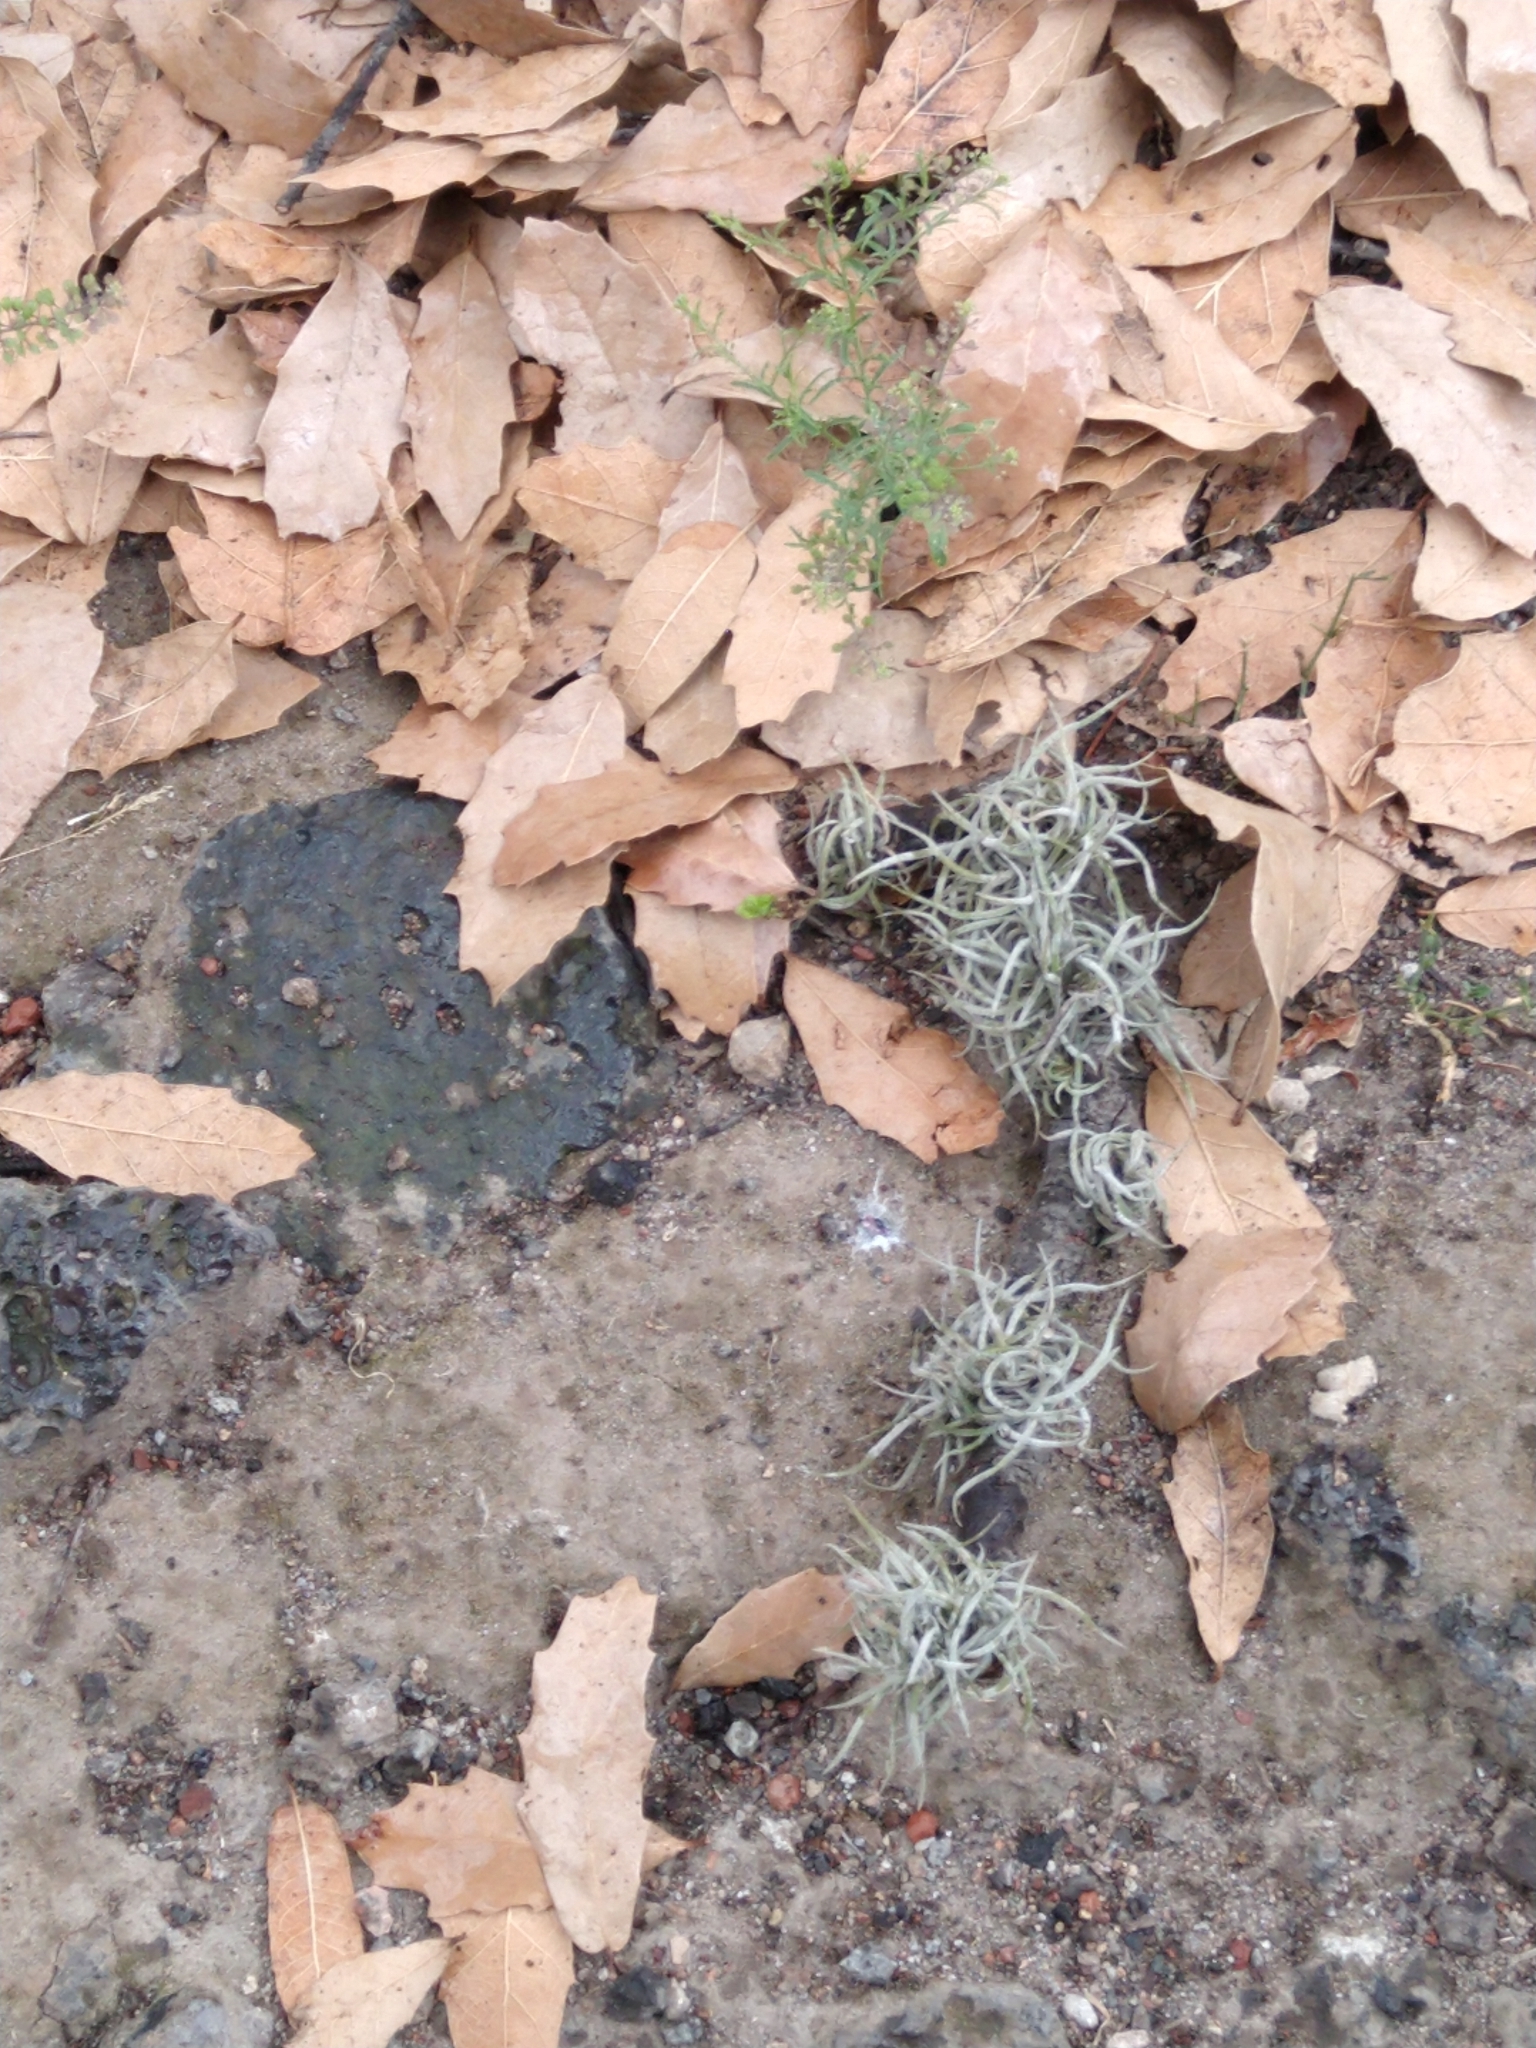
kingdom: Plantae
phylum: Tracheophyta
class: Liliopsida
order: Poales
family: Bromeliaceae
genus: Tillandsia
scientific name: Tillandsia recurvata
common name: Small ballmoss
